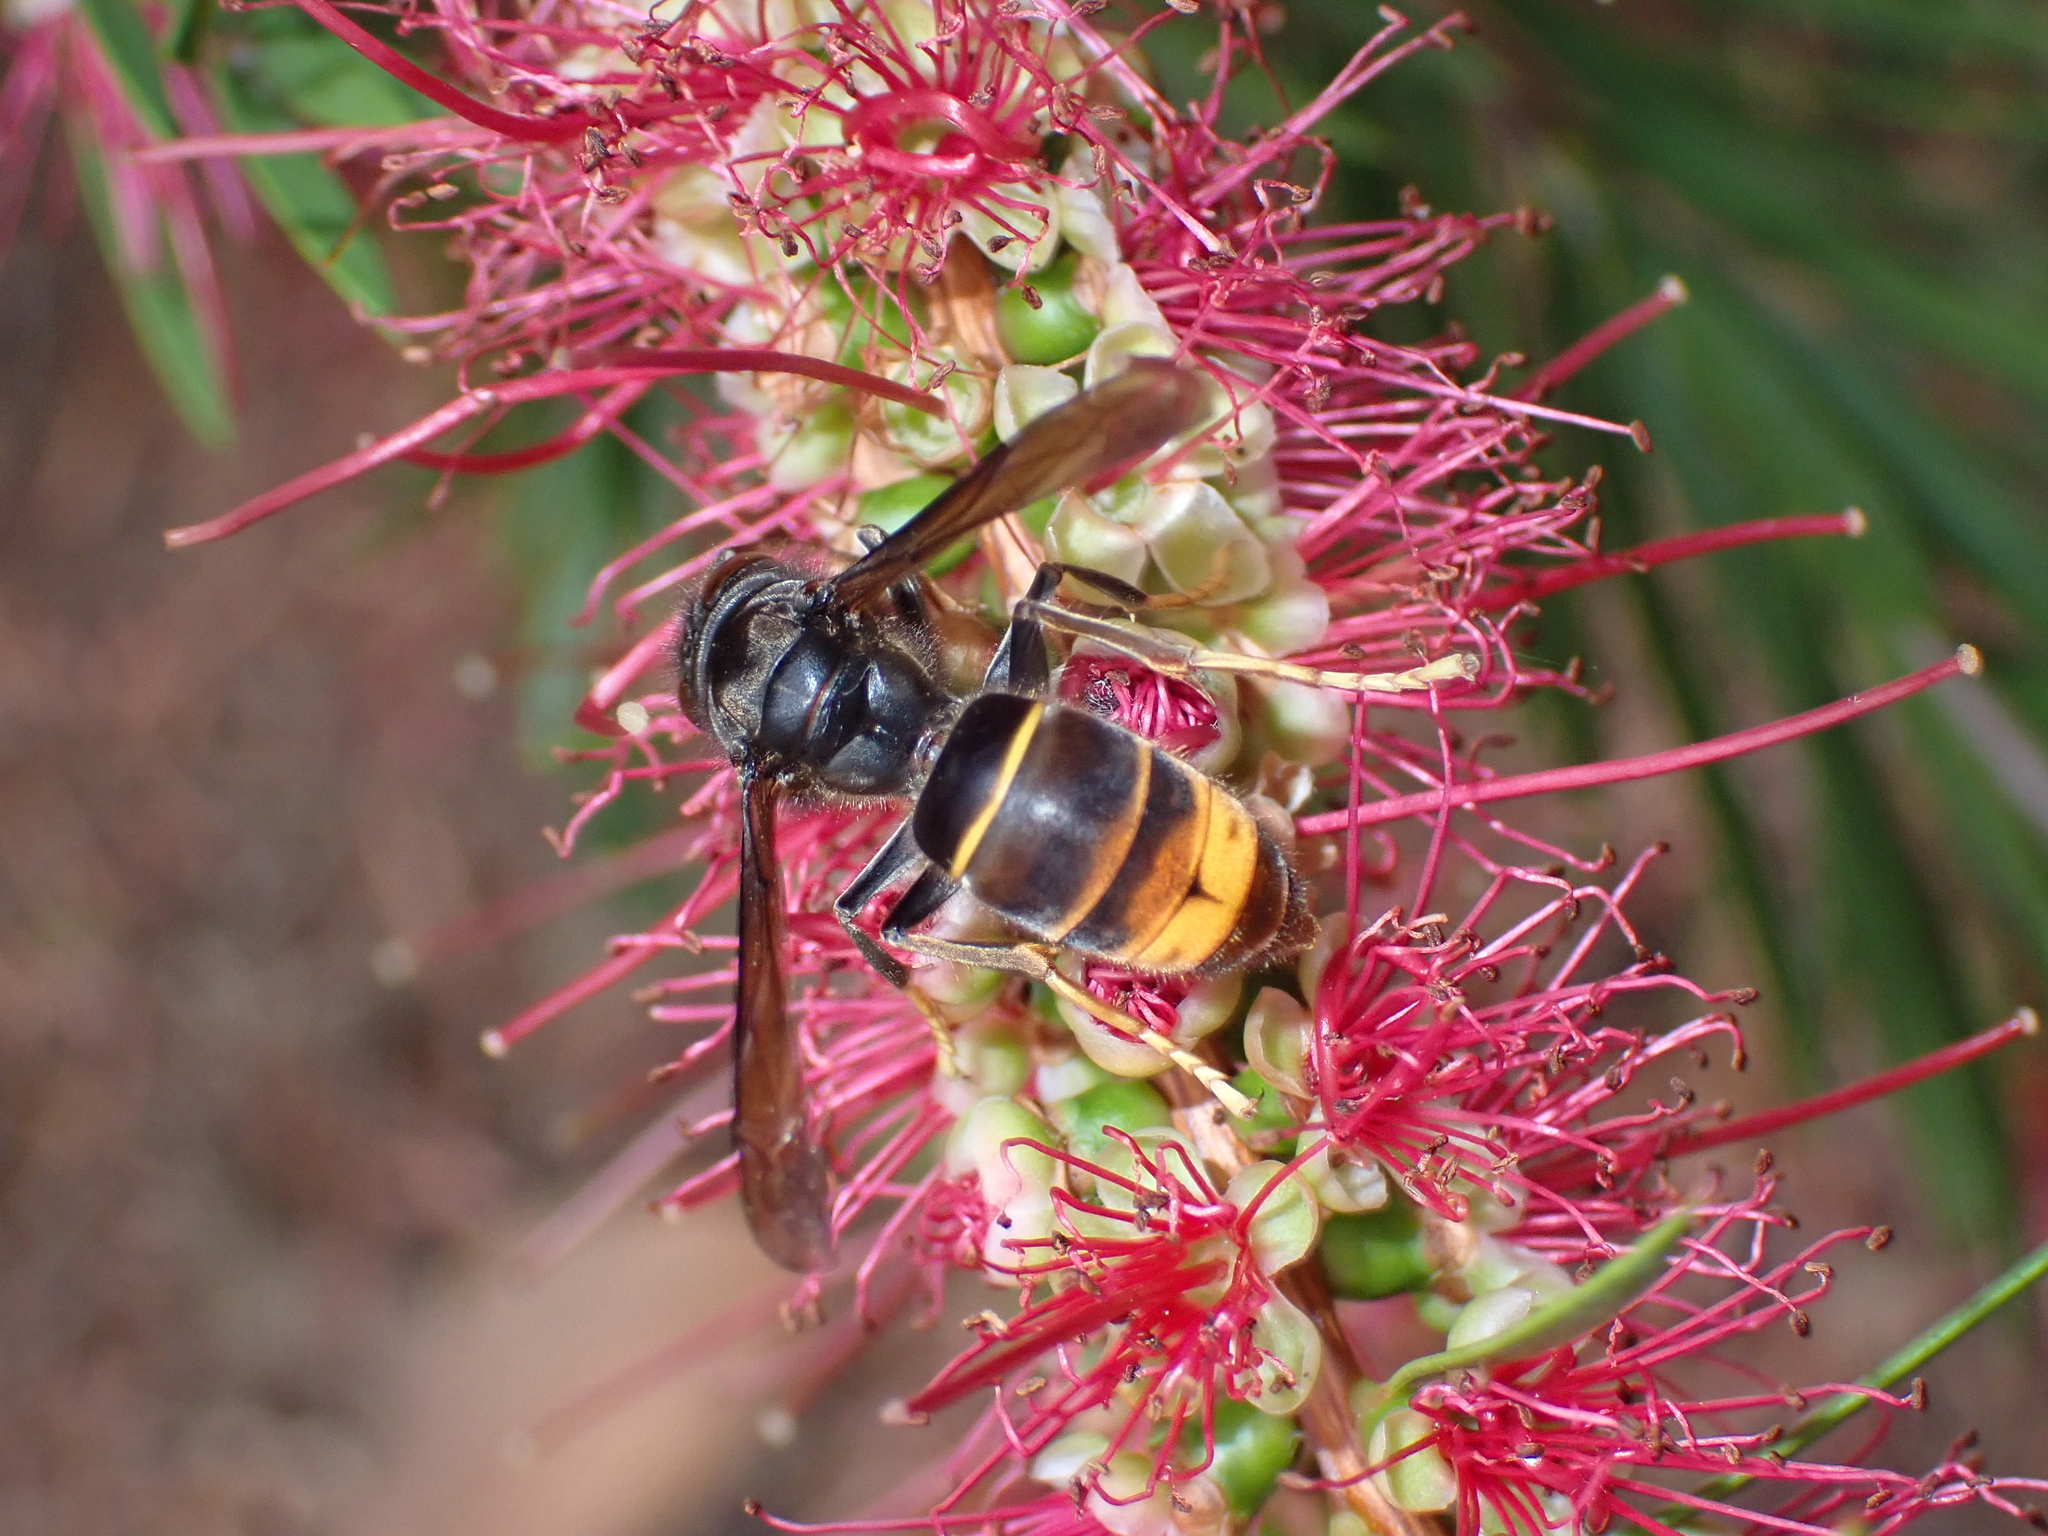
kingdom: Animalia
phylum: Arthropoda
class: Insecta
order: Hymenoptera
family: Vespidae
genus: Vespa
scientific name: Vespa velutina
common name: Asian hornet
